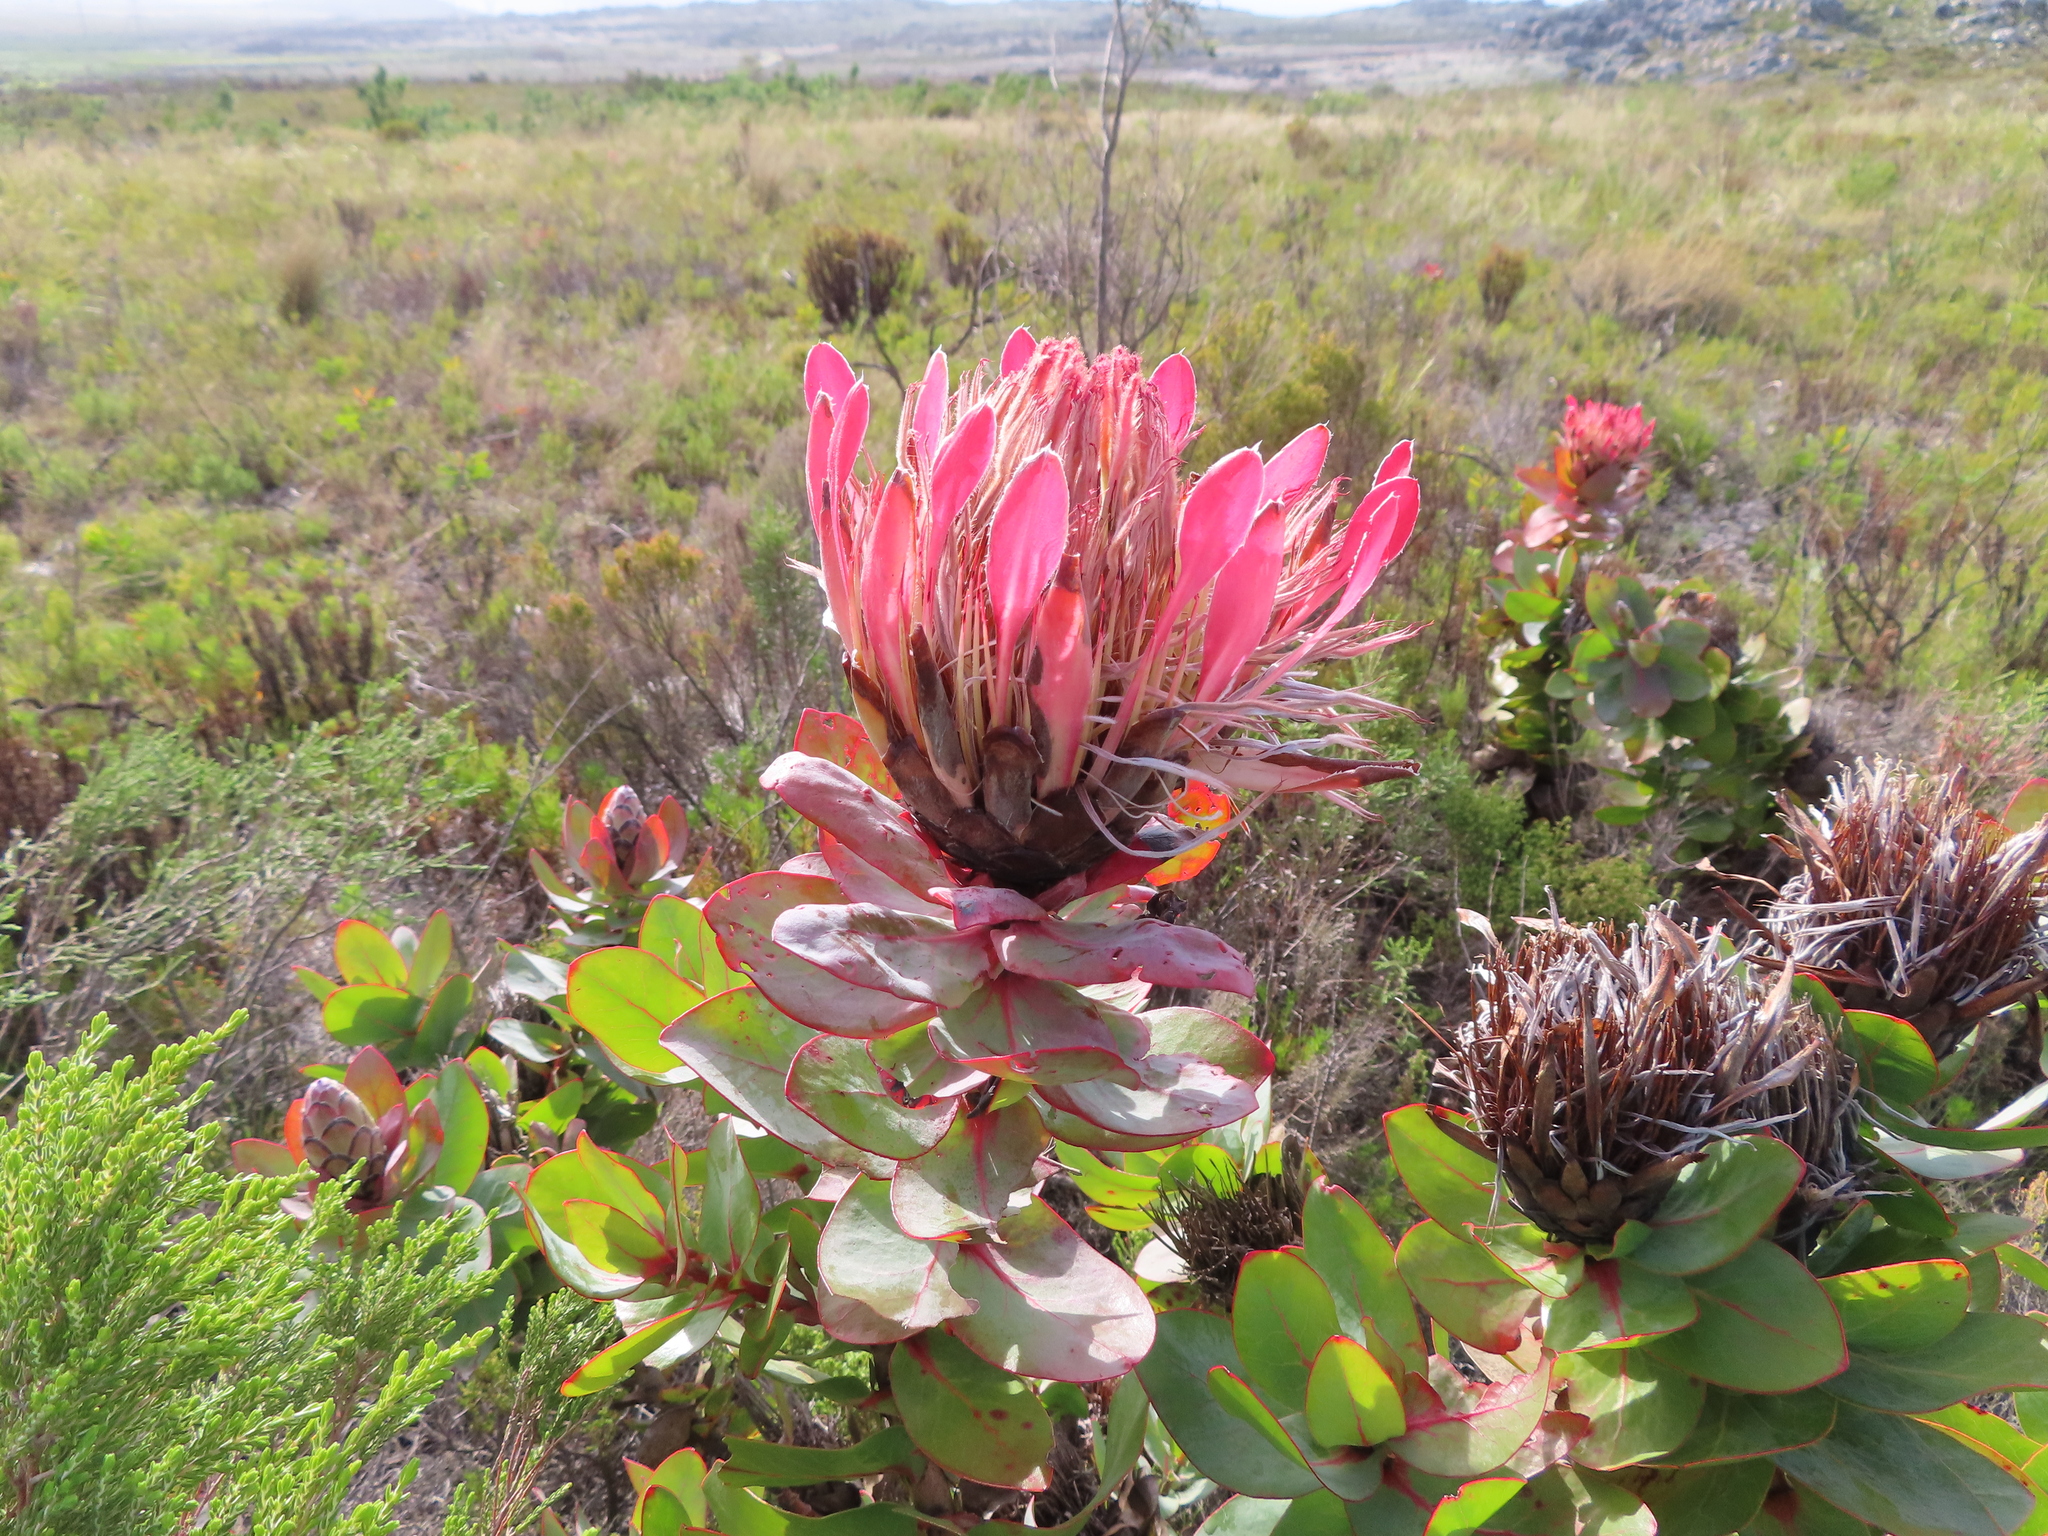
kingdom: Plantae
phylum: Tracheophyta
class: Magnoliopsida
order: Proteales
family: Proteaceae
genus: Protea
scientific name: Protea eximia
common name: Broad-leaved sugarbush
